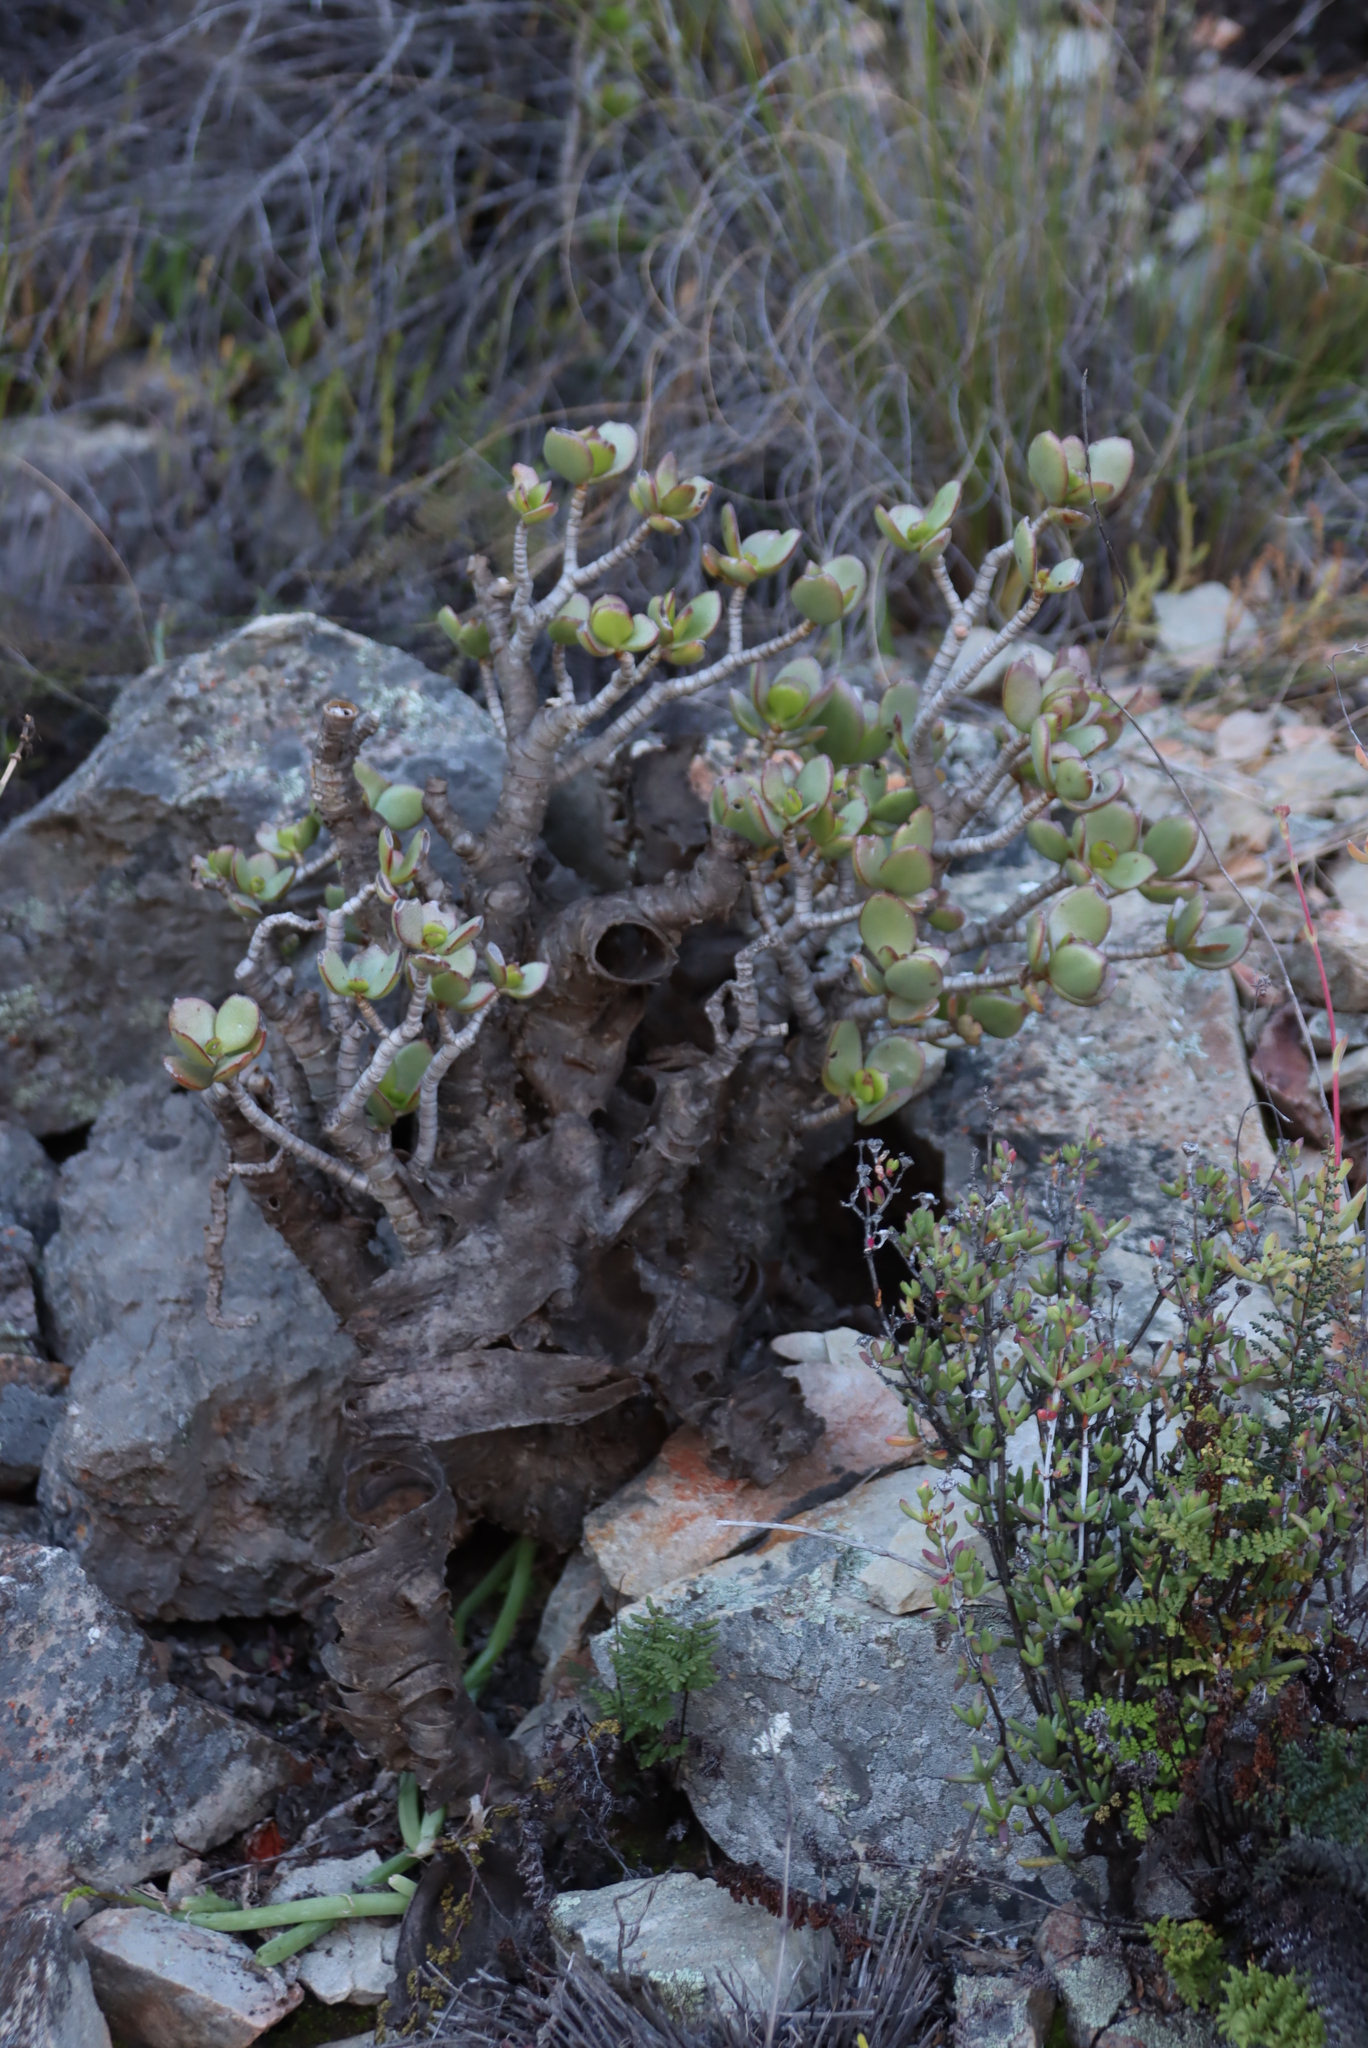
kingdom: Plantae
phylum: Tracheophyta
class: Magnoliopsida
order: Saxifragales
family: Crassulaceae
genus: Crassula
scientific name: Crassula arborescens
